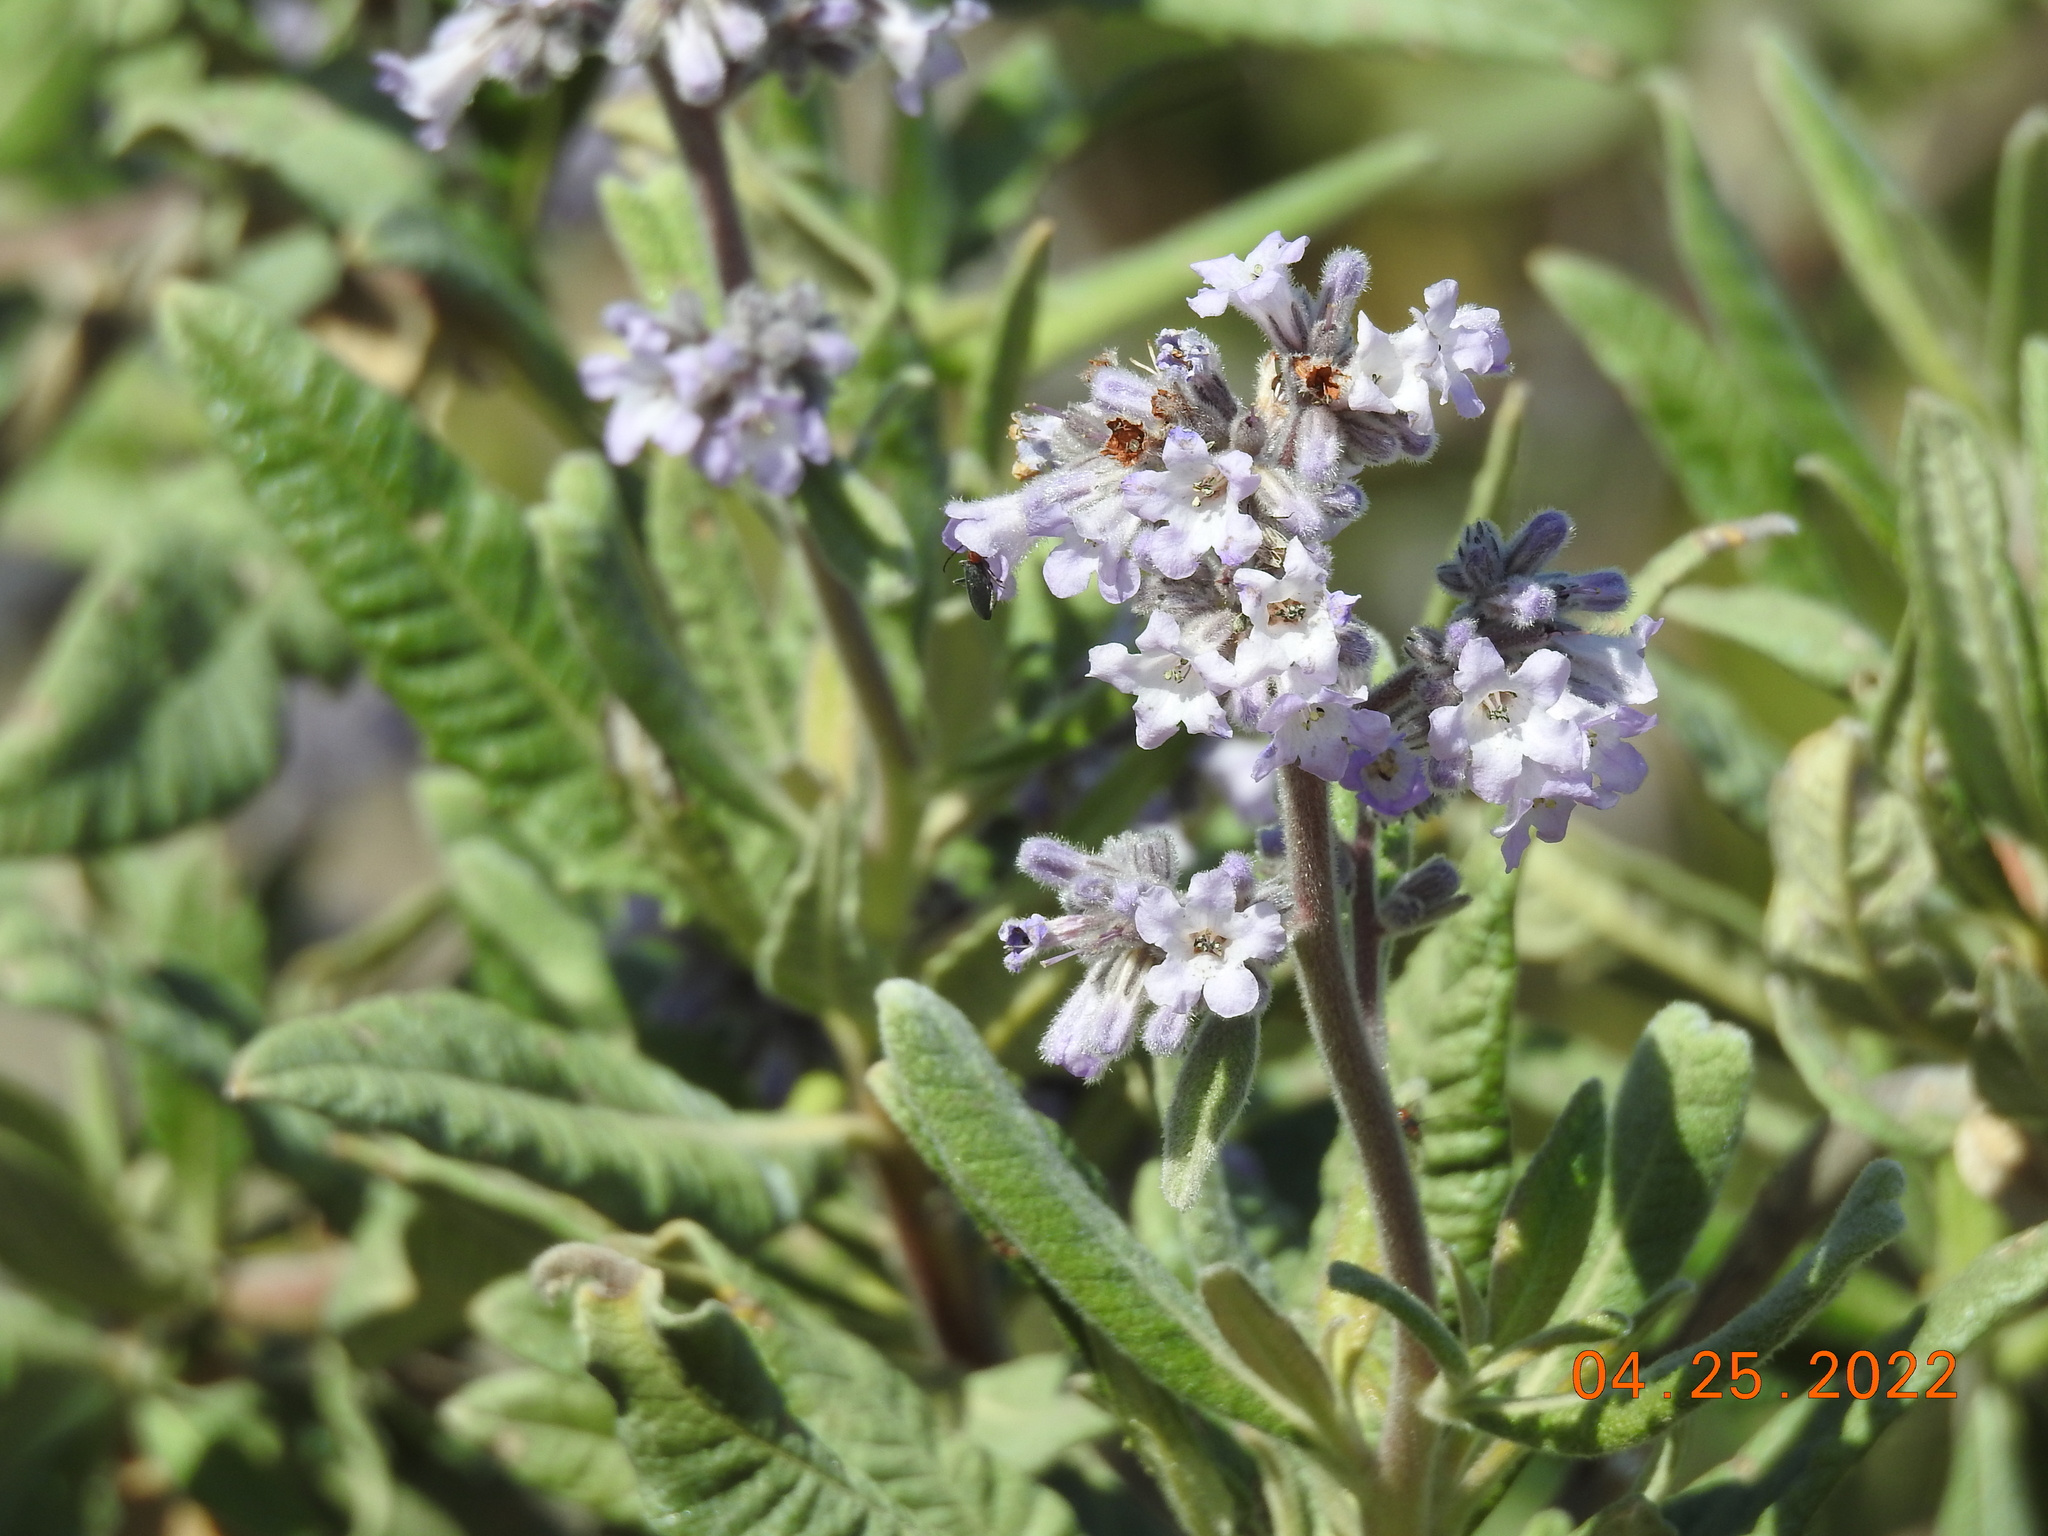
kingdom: Plantae
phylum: Tracheophyta
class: Magnoliopsida
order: Boraginales
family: Namaceae
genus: Eriodictyon
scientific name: Eriodictyon crassifolium
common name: Thick-leaf yerba-santa
